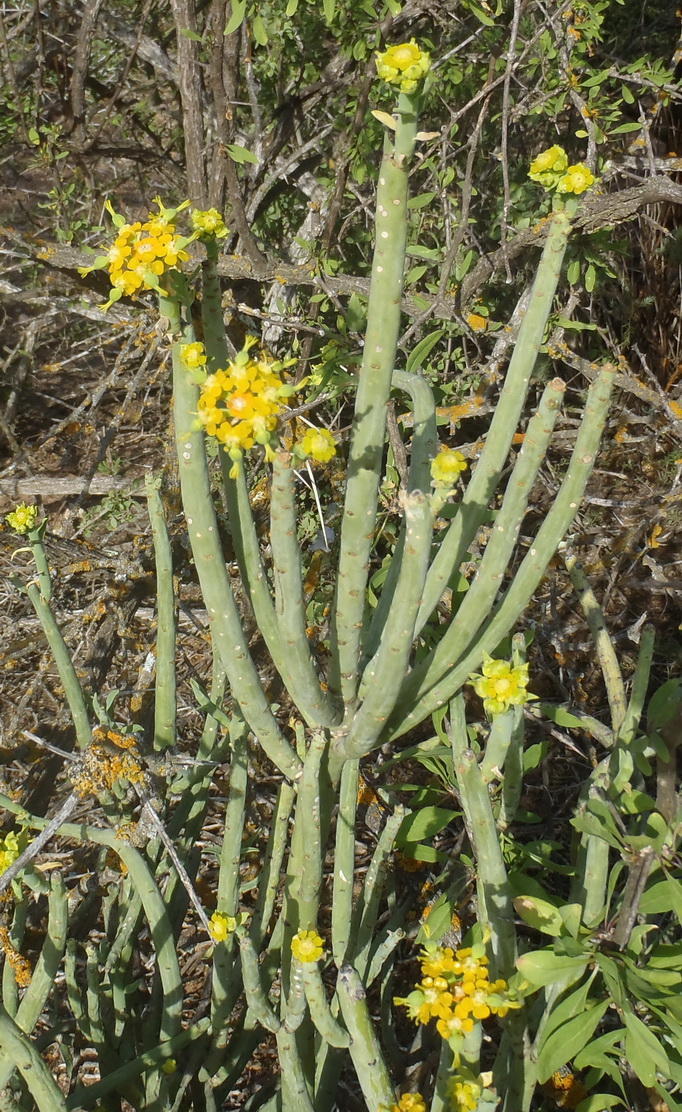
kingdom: Plantae
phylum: Tracheophyta
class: Magnoliopsida
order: Malpighiales
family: Euphorbiaceae
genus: Euphorbia
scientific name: Euphorbia mauritanica
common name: Jackal's-food
